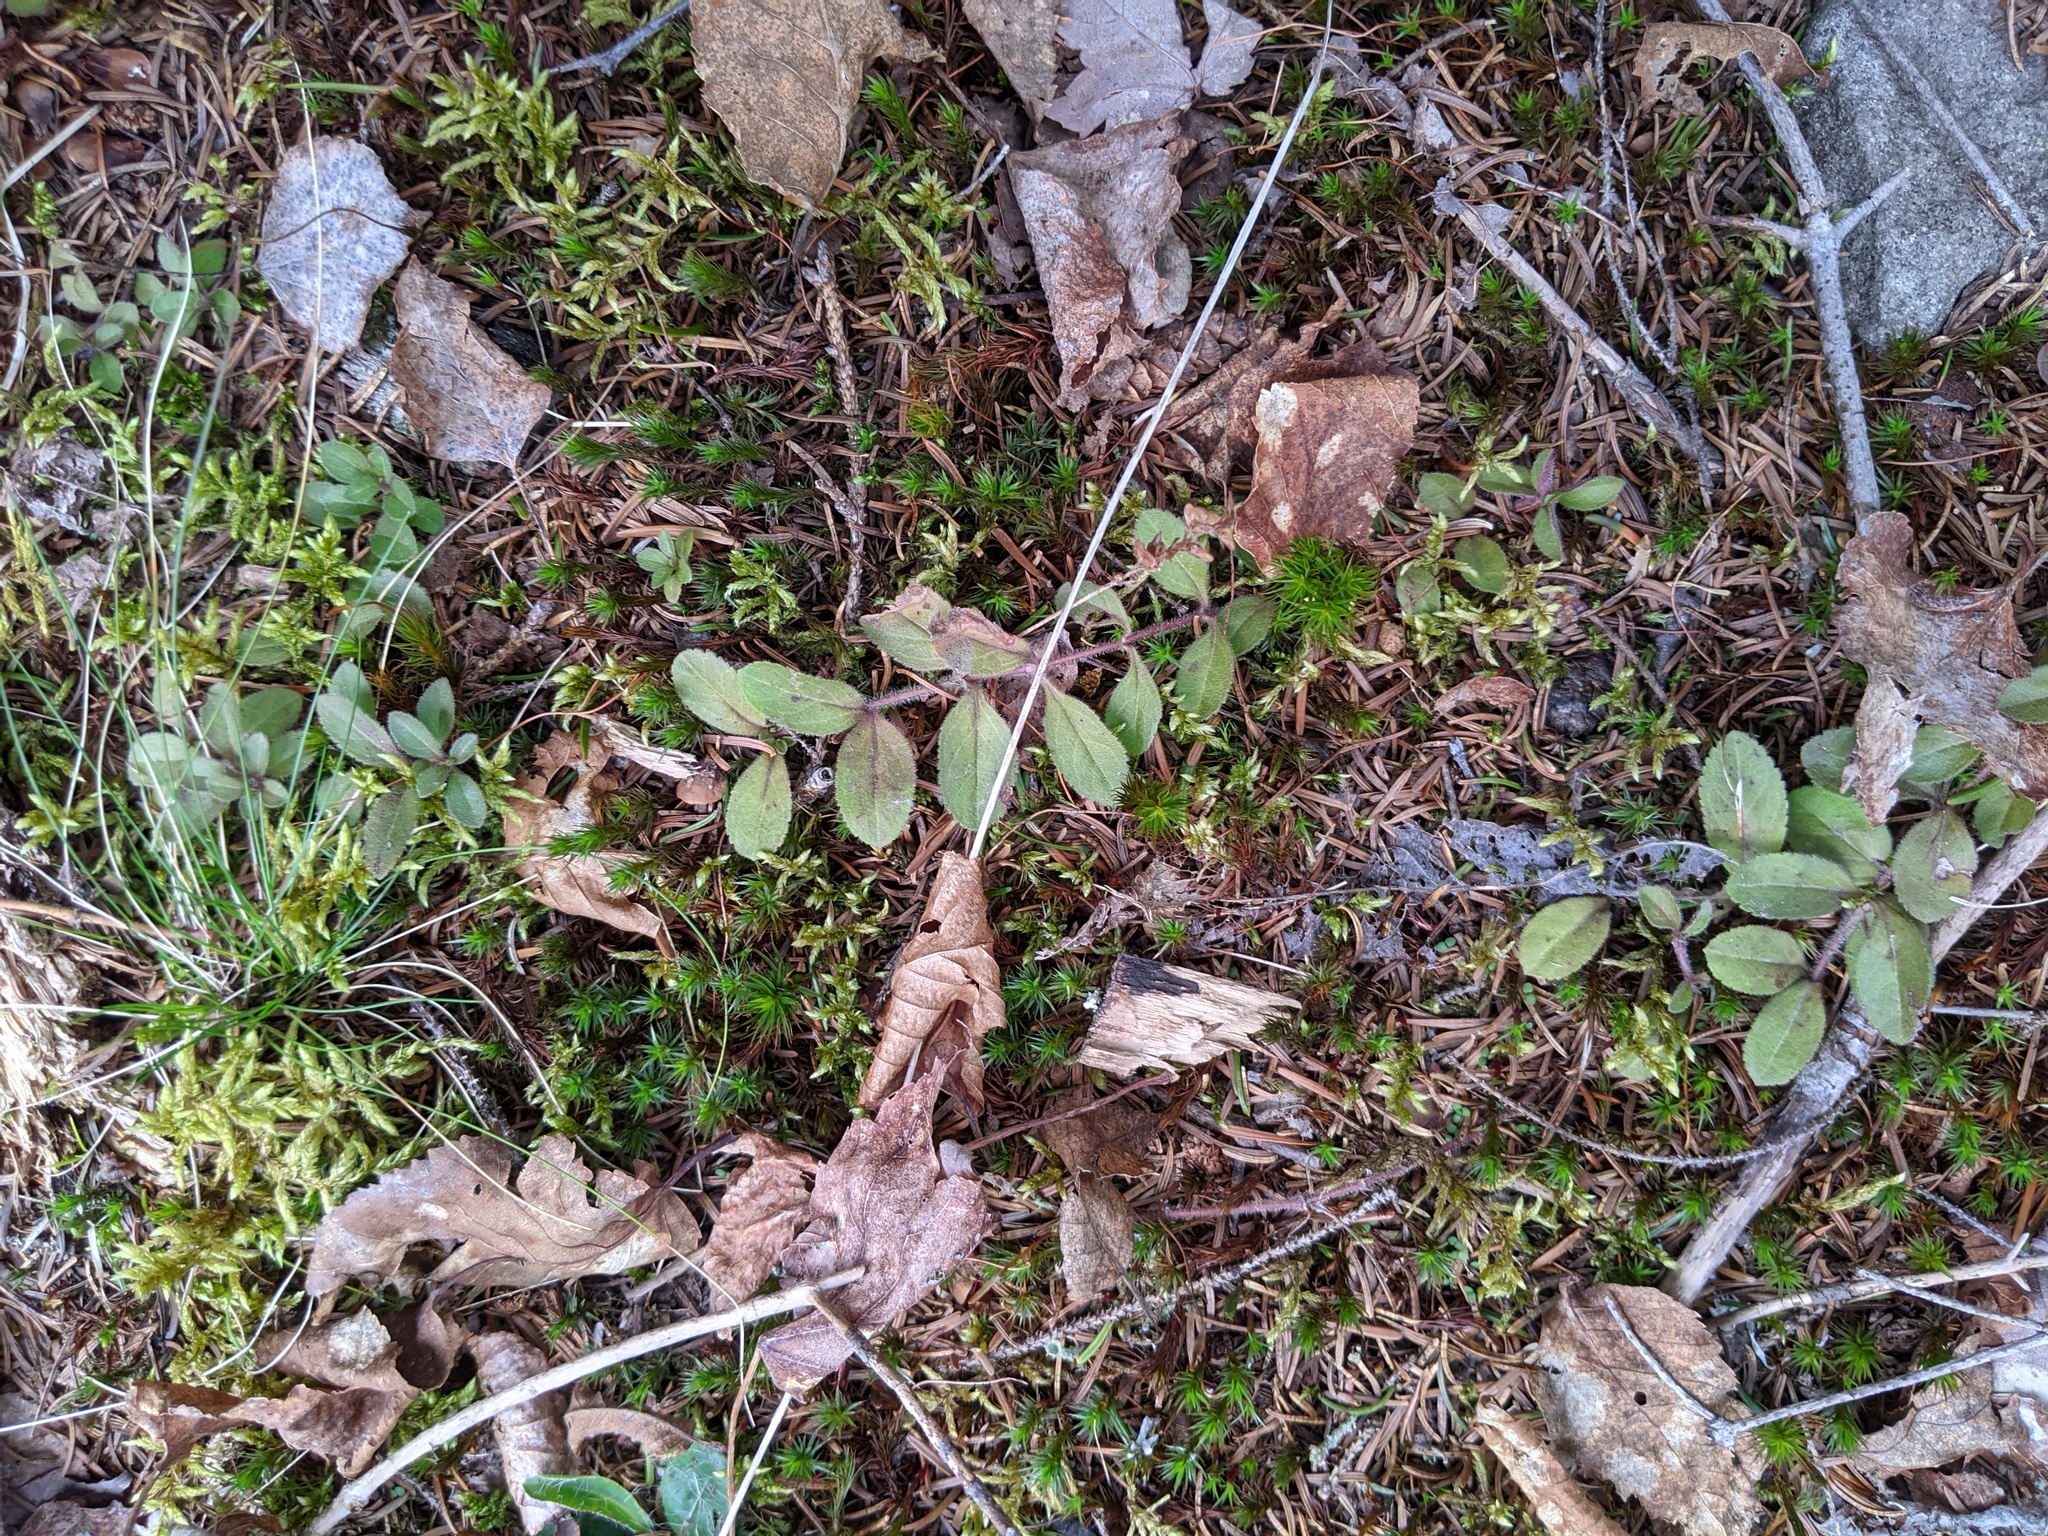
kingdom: Plantae
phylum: Tracheophyta
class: Magnoliopsida
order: Lamiales
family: Plantaginaceae
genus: Veronica
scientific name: Veronica officinalis
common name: Common speedwell
